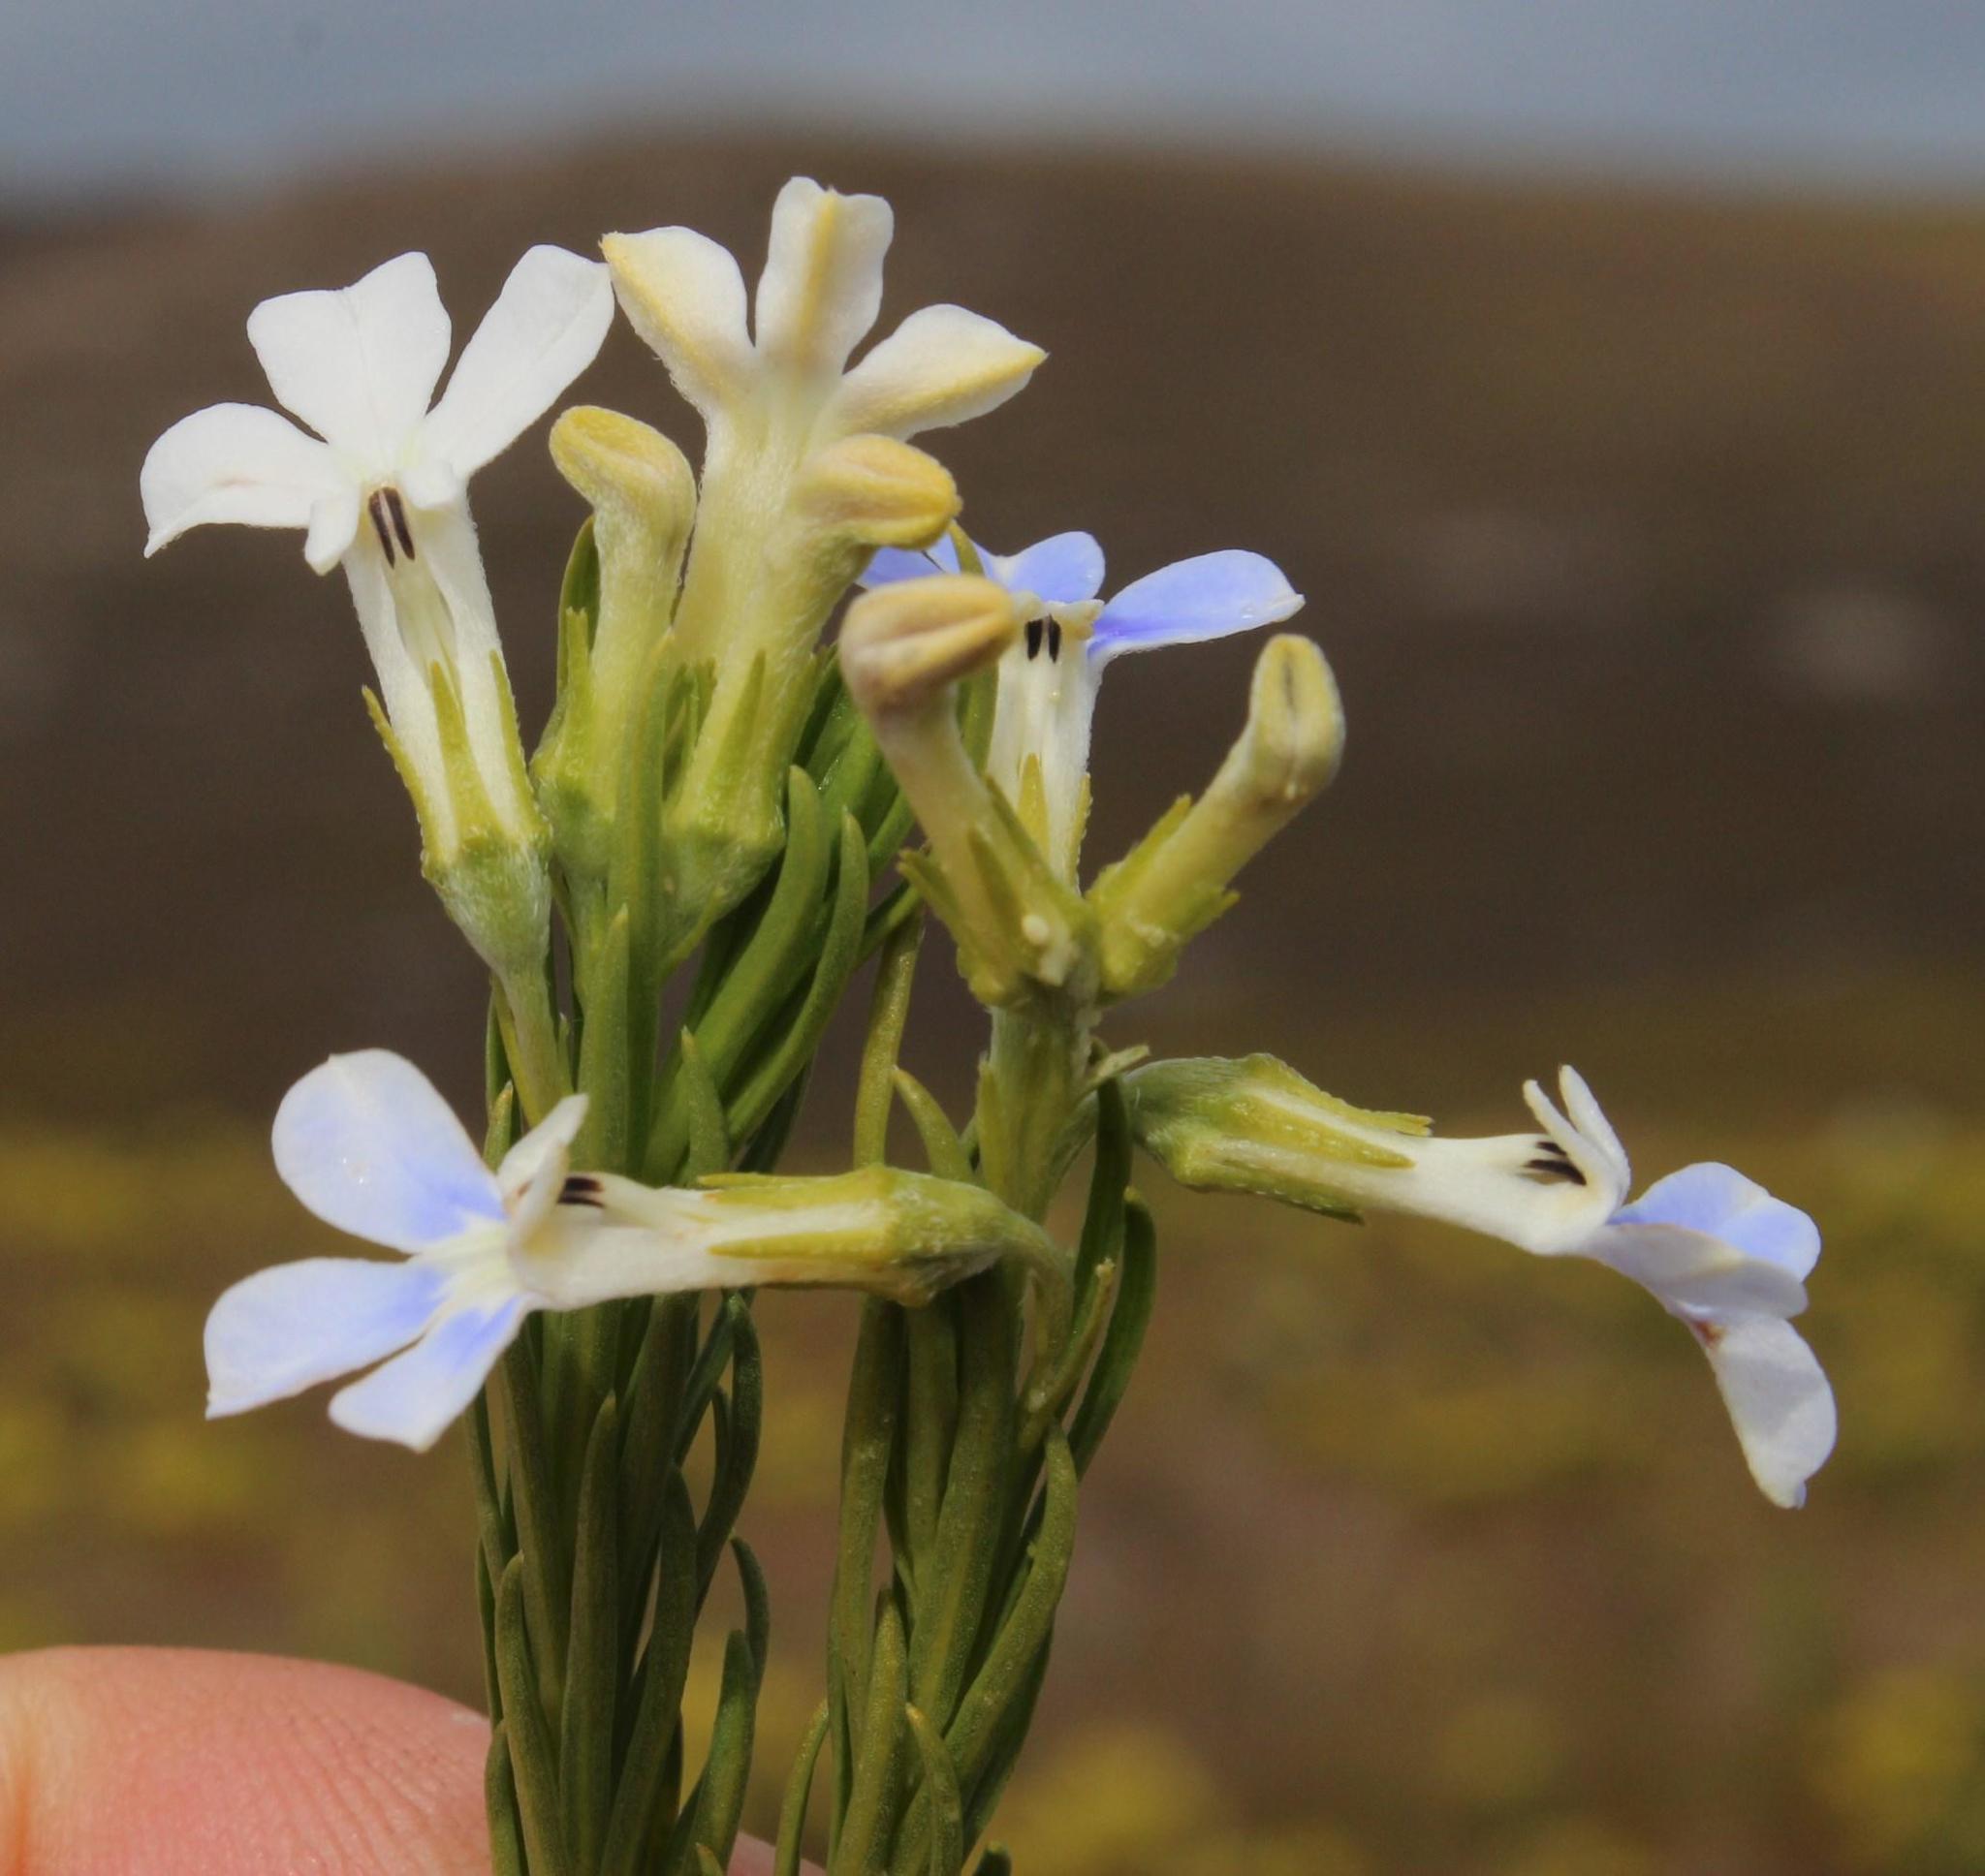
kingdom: Plantae
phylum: Tracheophyta
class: Magnoliopsida
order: Asterales
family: Campanulaceae
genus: Lobelia
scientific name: Lobelia pinifolia
